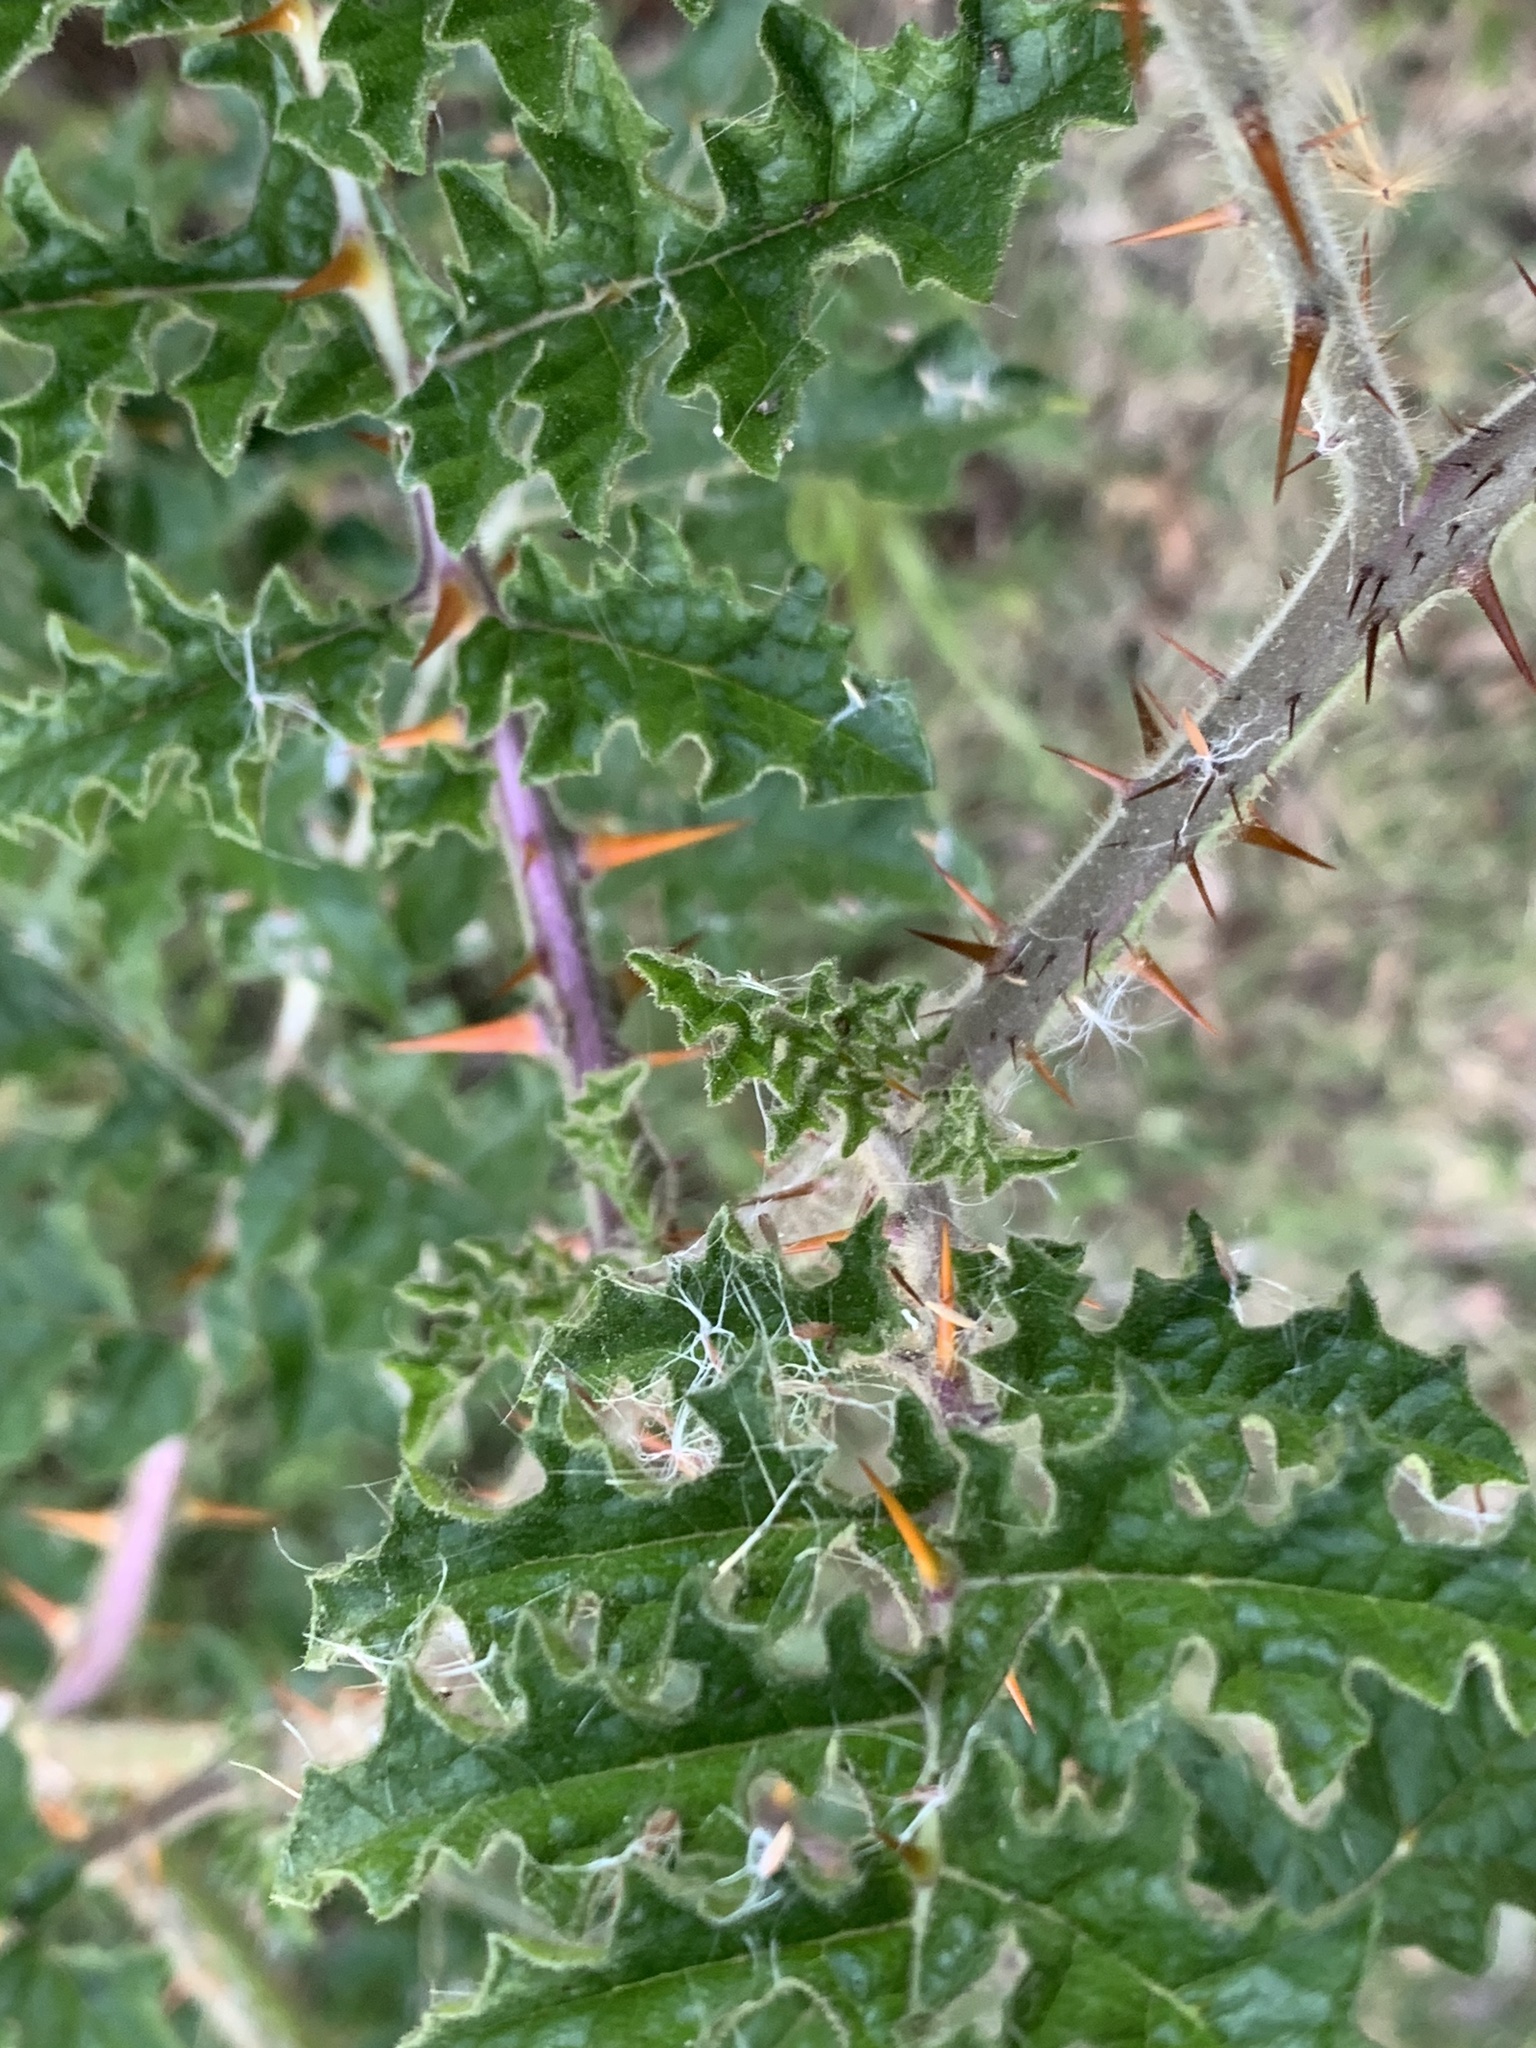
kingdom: Plantae
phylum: Tracheophyta
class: Magnoliopsida
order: Solanales
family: Solanaceae
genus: Solanum
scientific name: Solanum sisymbriifolium
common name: Red buffalo-bur
